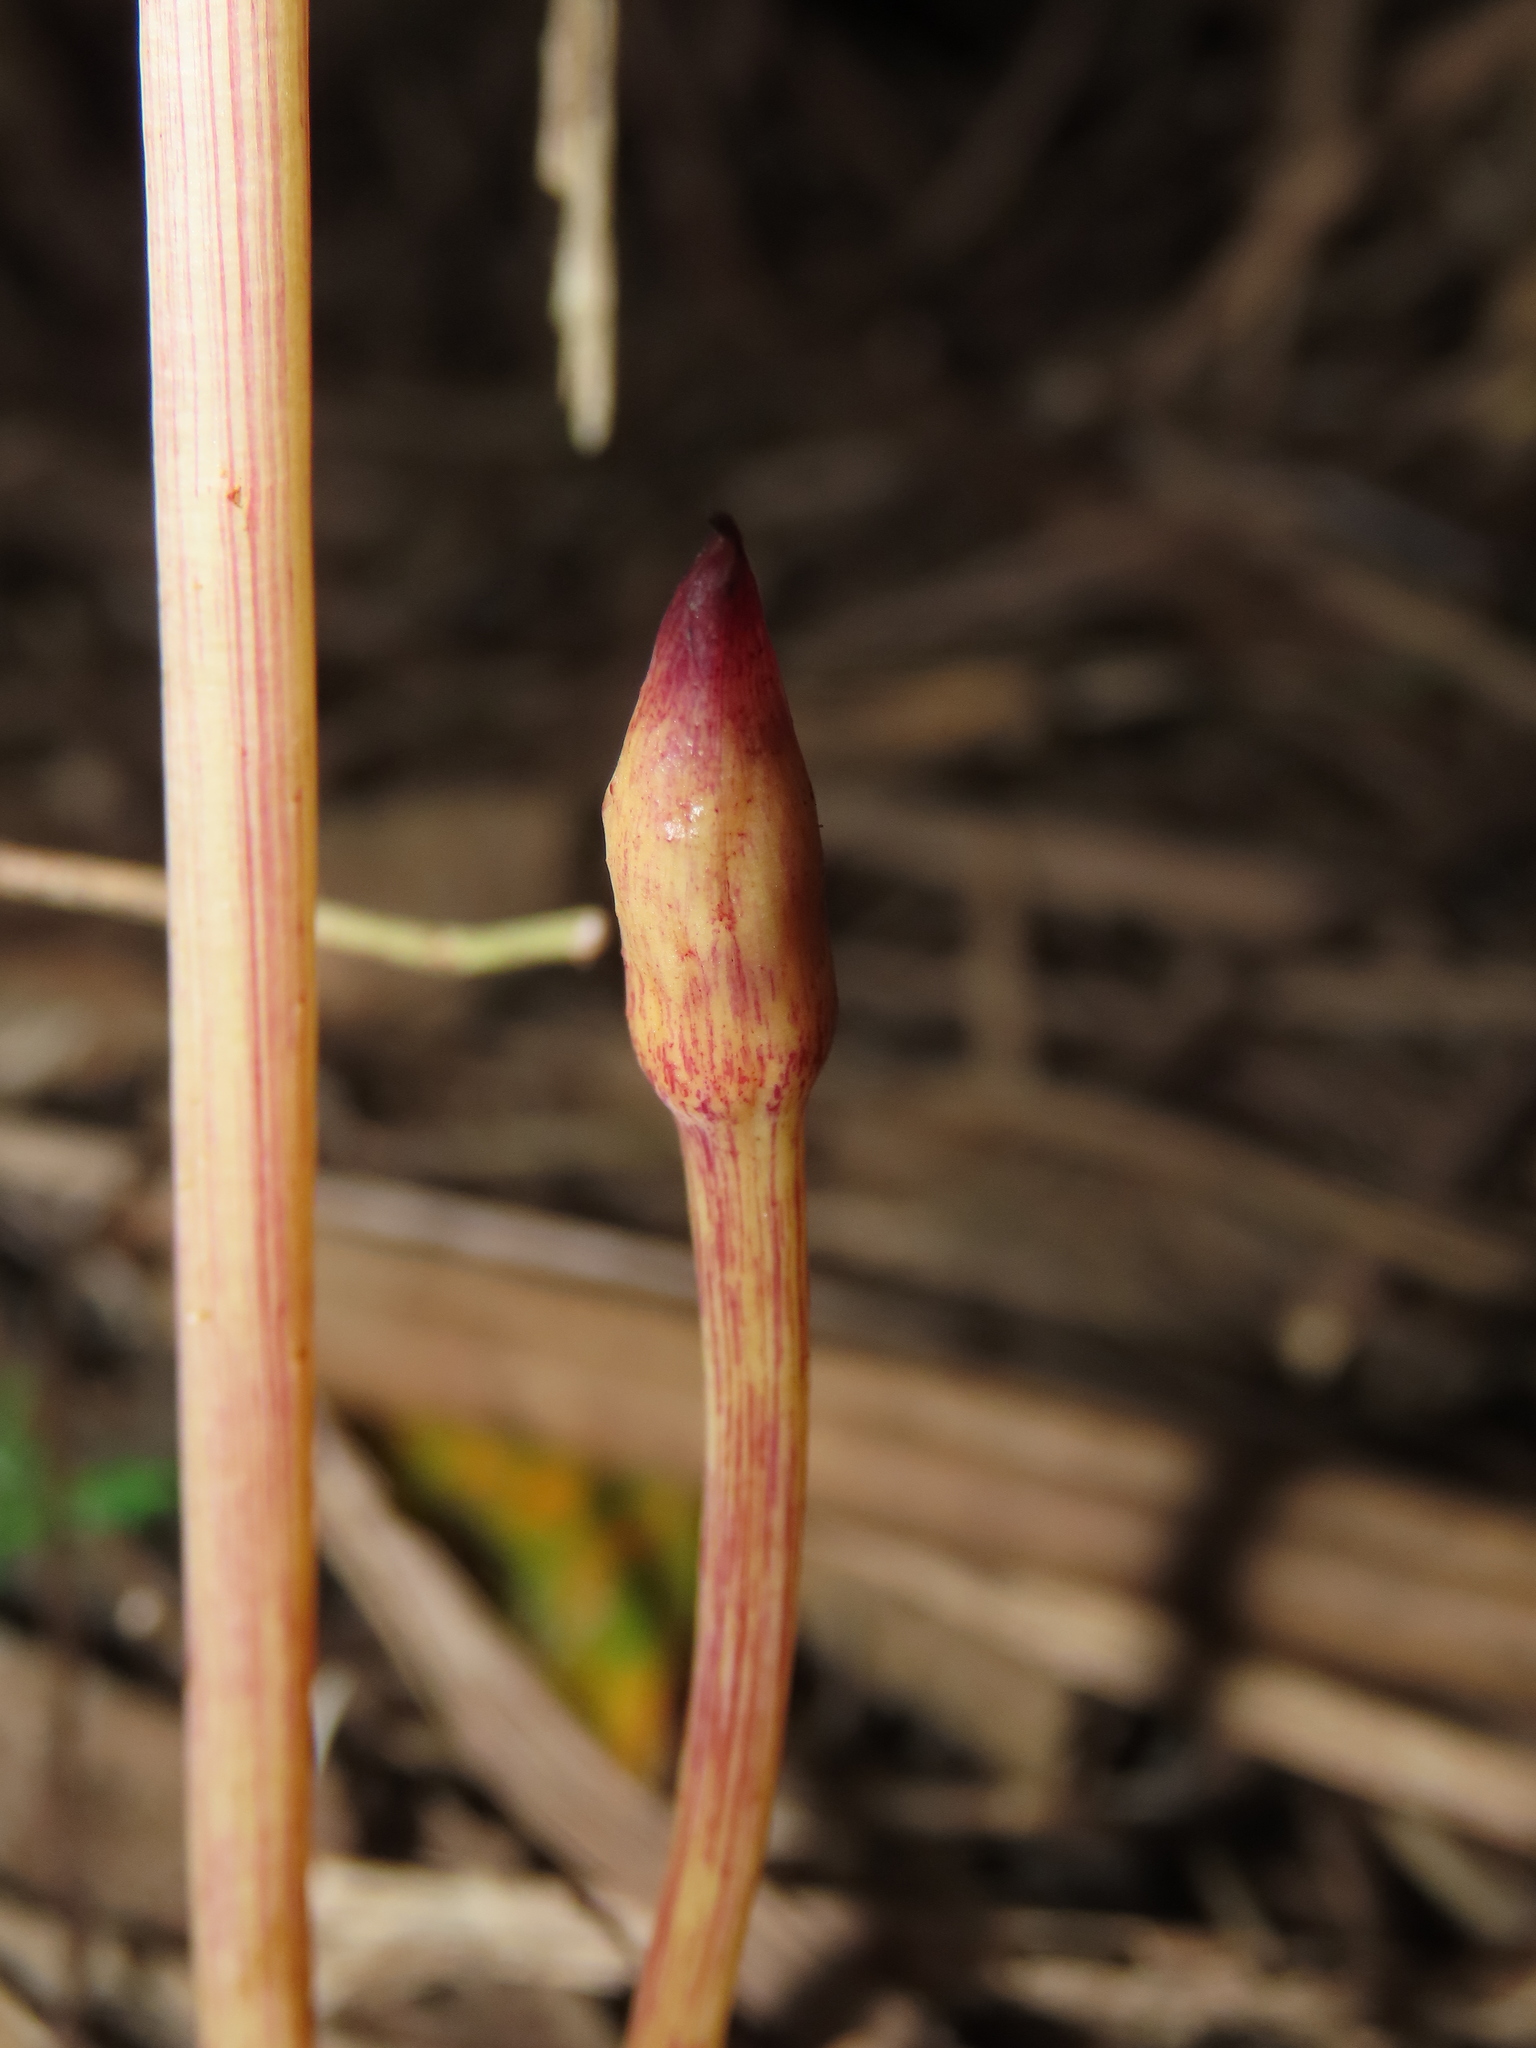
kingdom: Plantae
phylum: Tracheophyta
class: Magnoliopsida
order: Lamiales
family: Orobanchaceae
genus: Aeginetia
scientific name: Aeginetia indica
